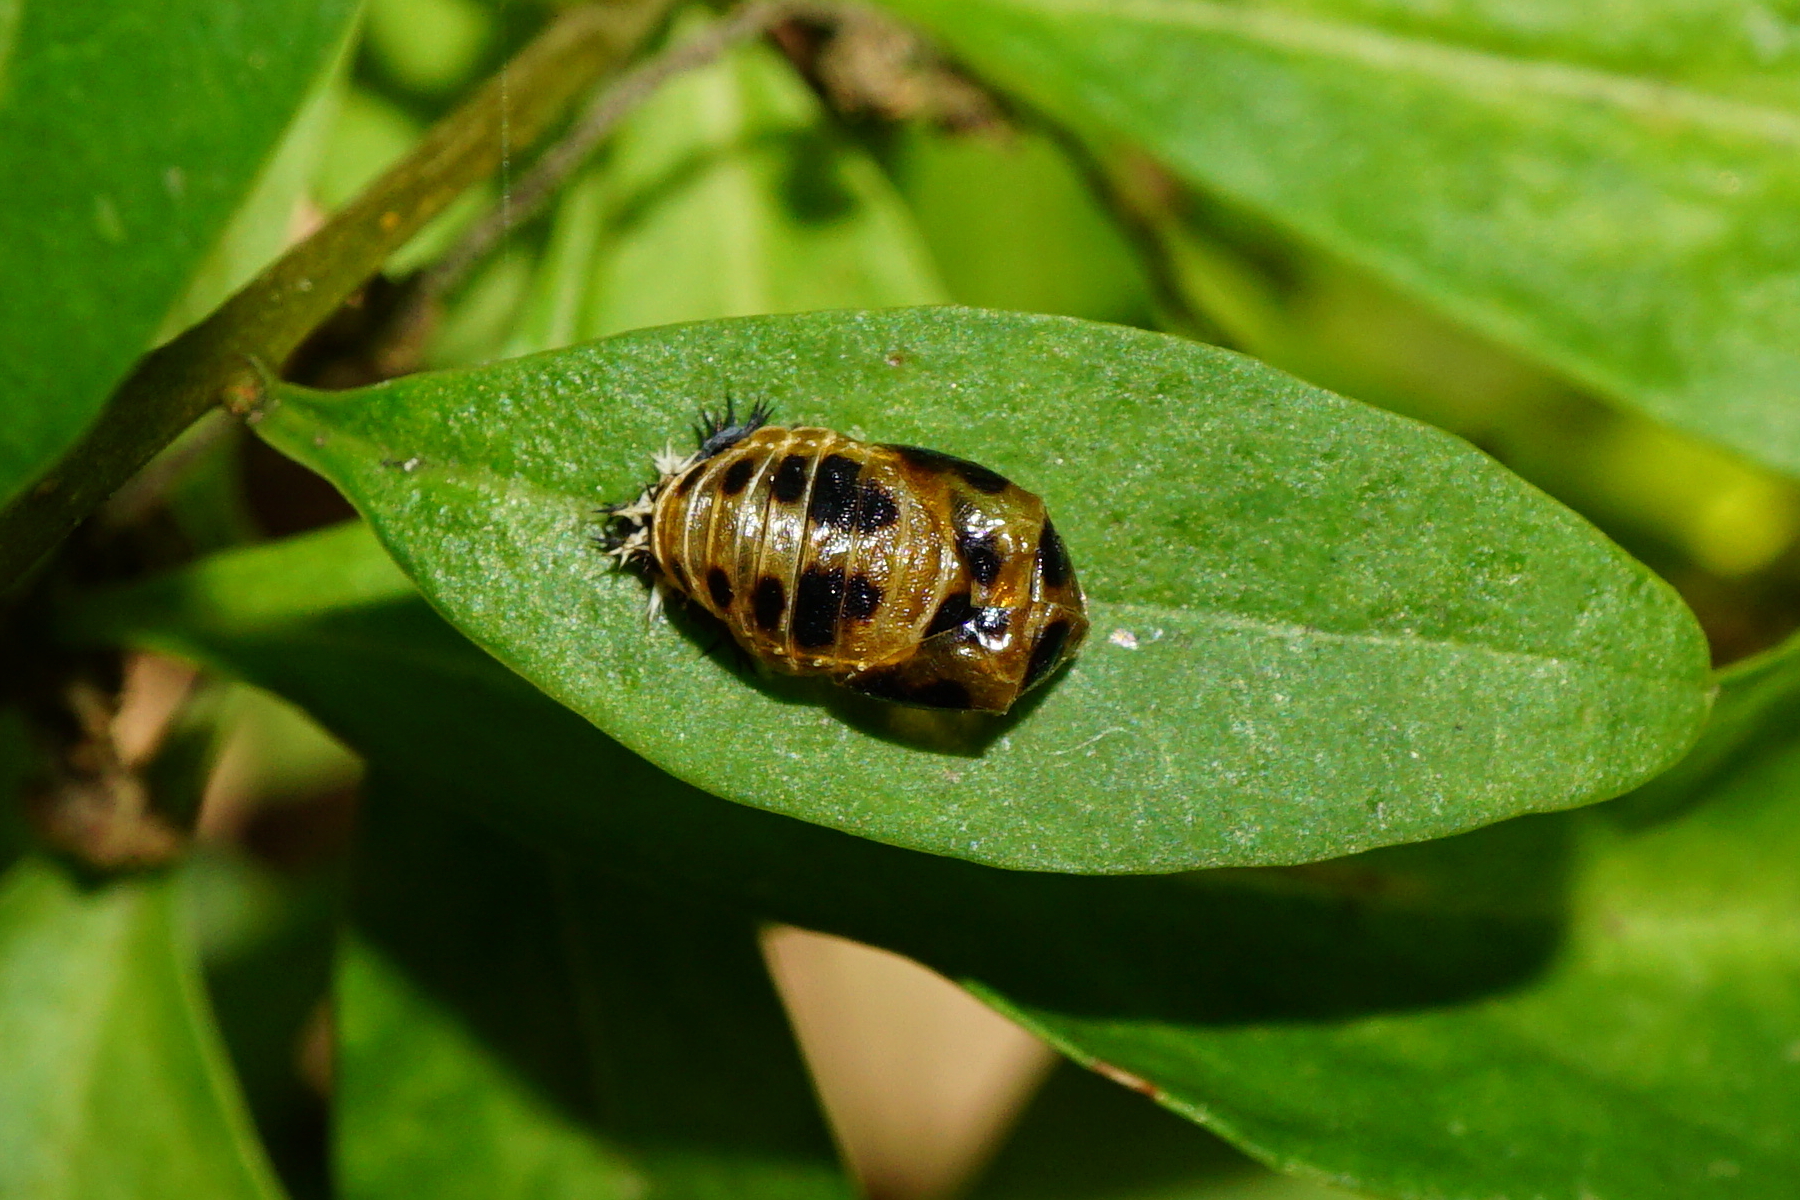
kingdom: Animalia
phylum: Arthropoda
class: Insecta
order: Coleoptera
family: Coccinellidae
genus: Harmonia
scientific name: Harmonia axyridis
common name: Harlequin ladybird
